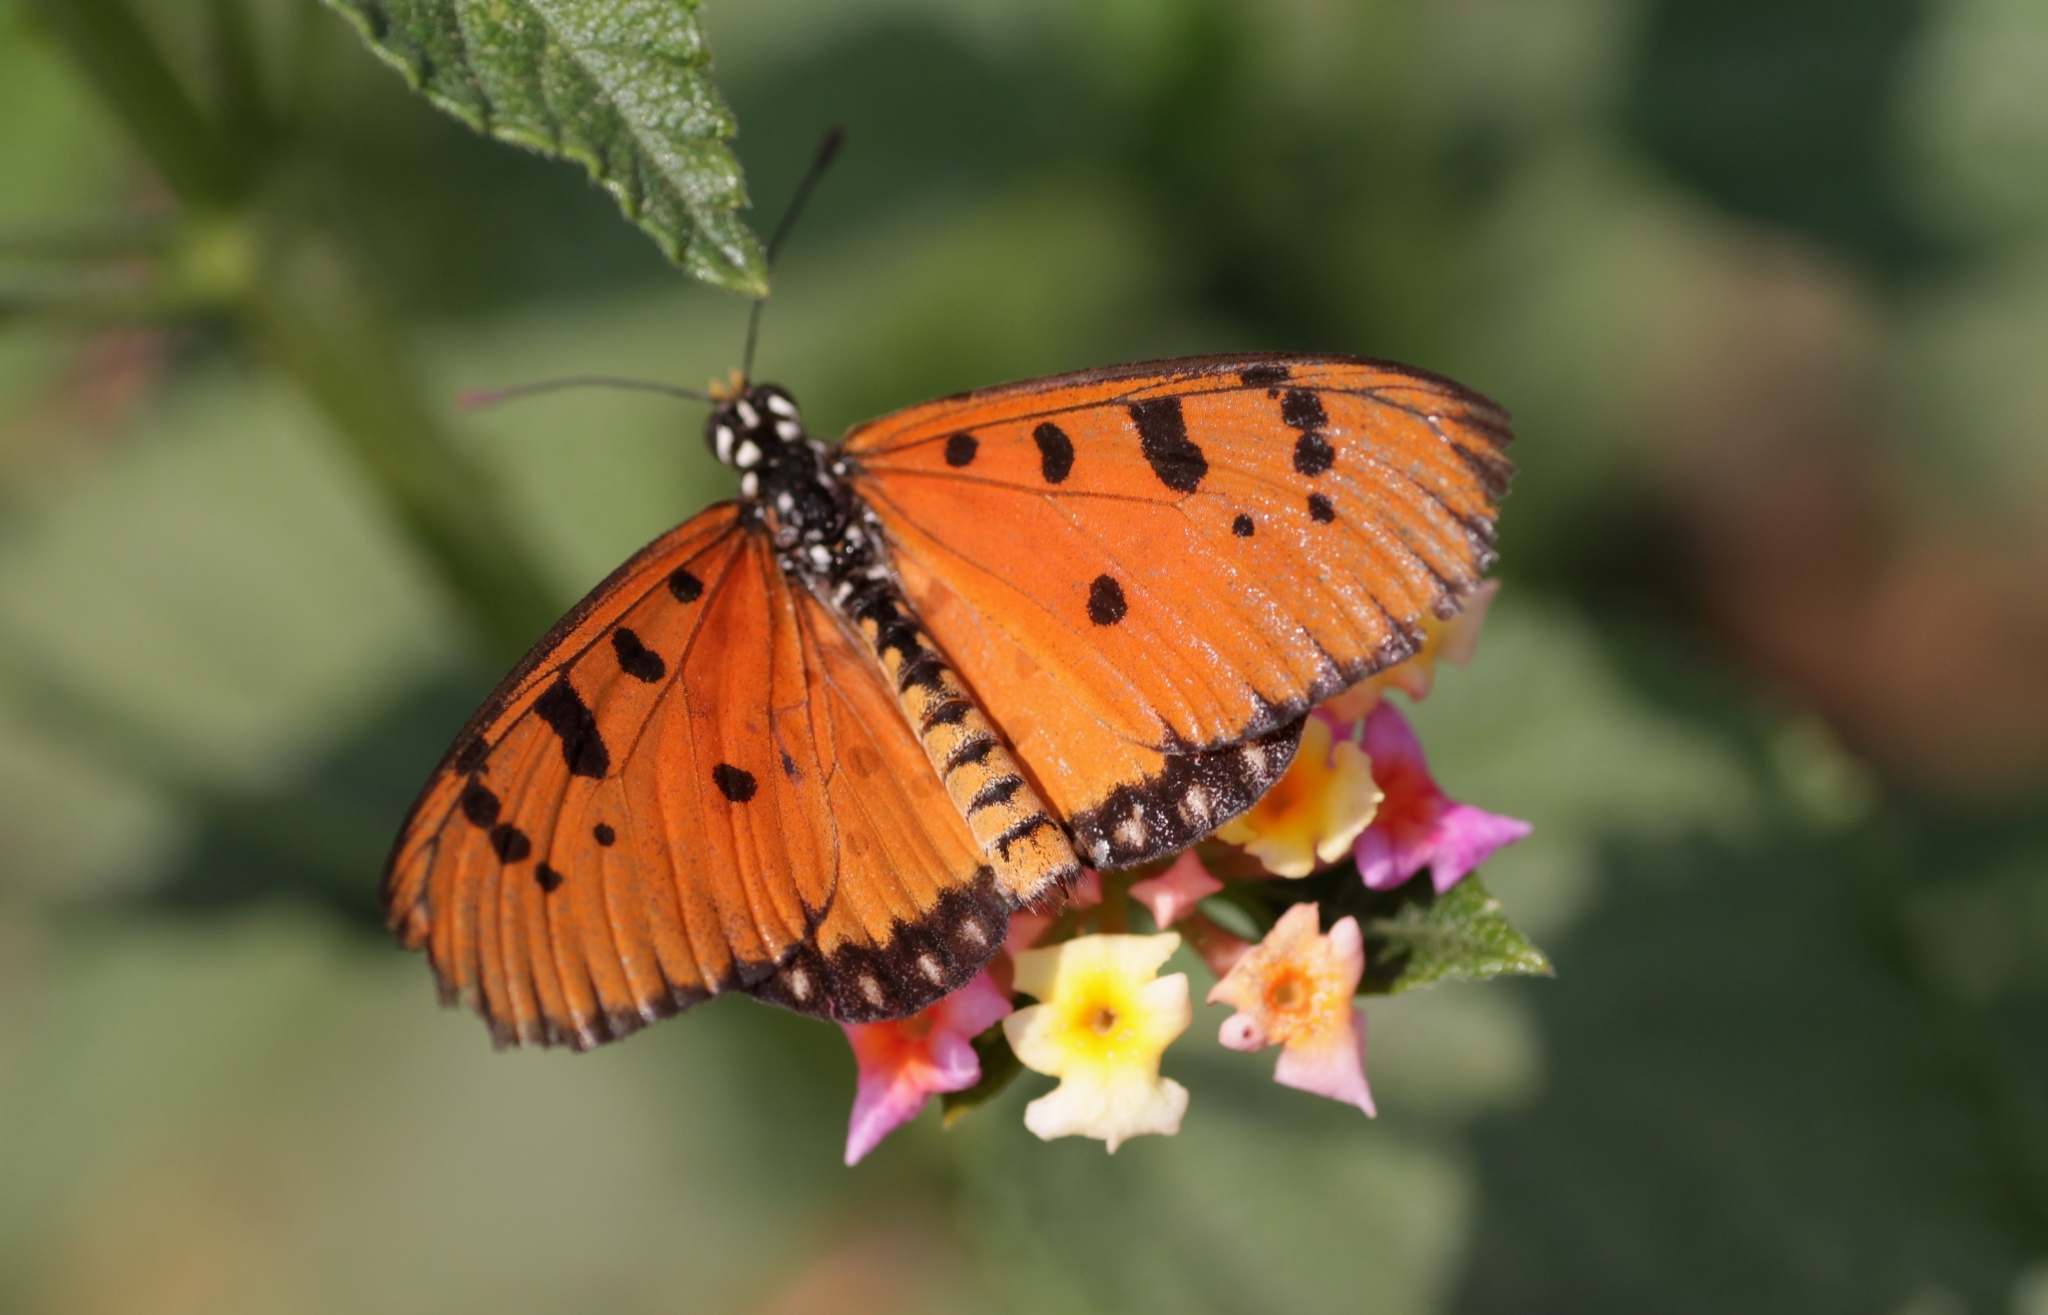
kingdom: Animalia
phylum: Arthropoda
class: Insecta
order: Lepidoptera
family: Nymphalidae
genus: Acraea
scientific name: Acraea terpsicore
